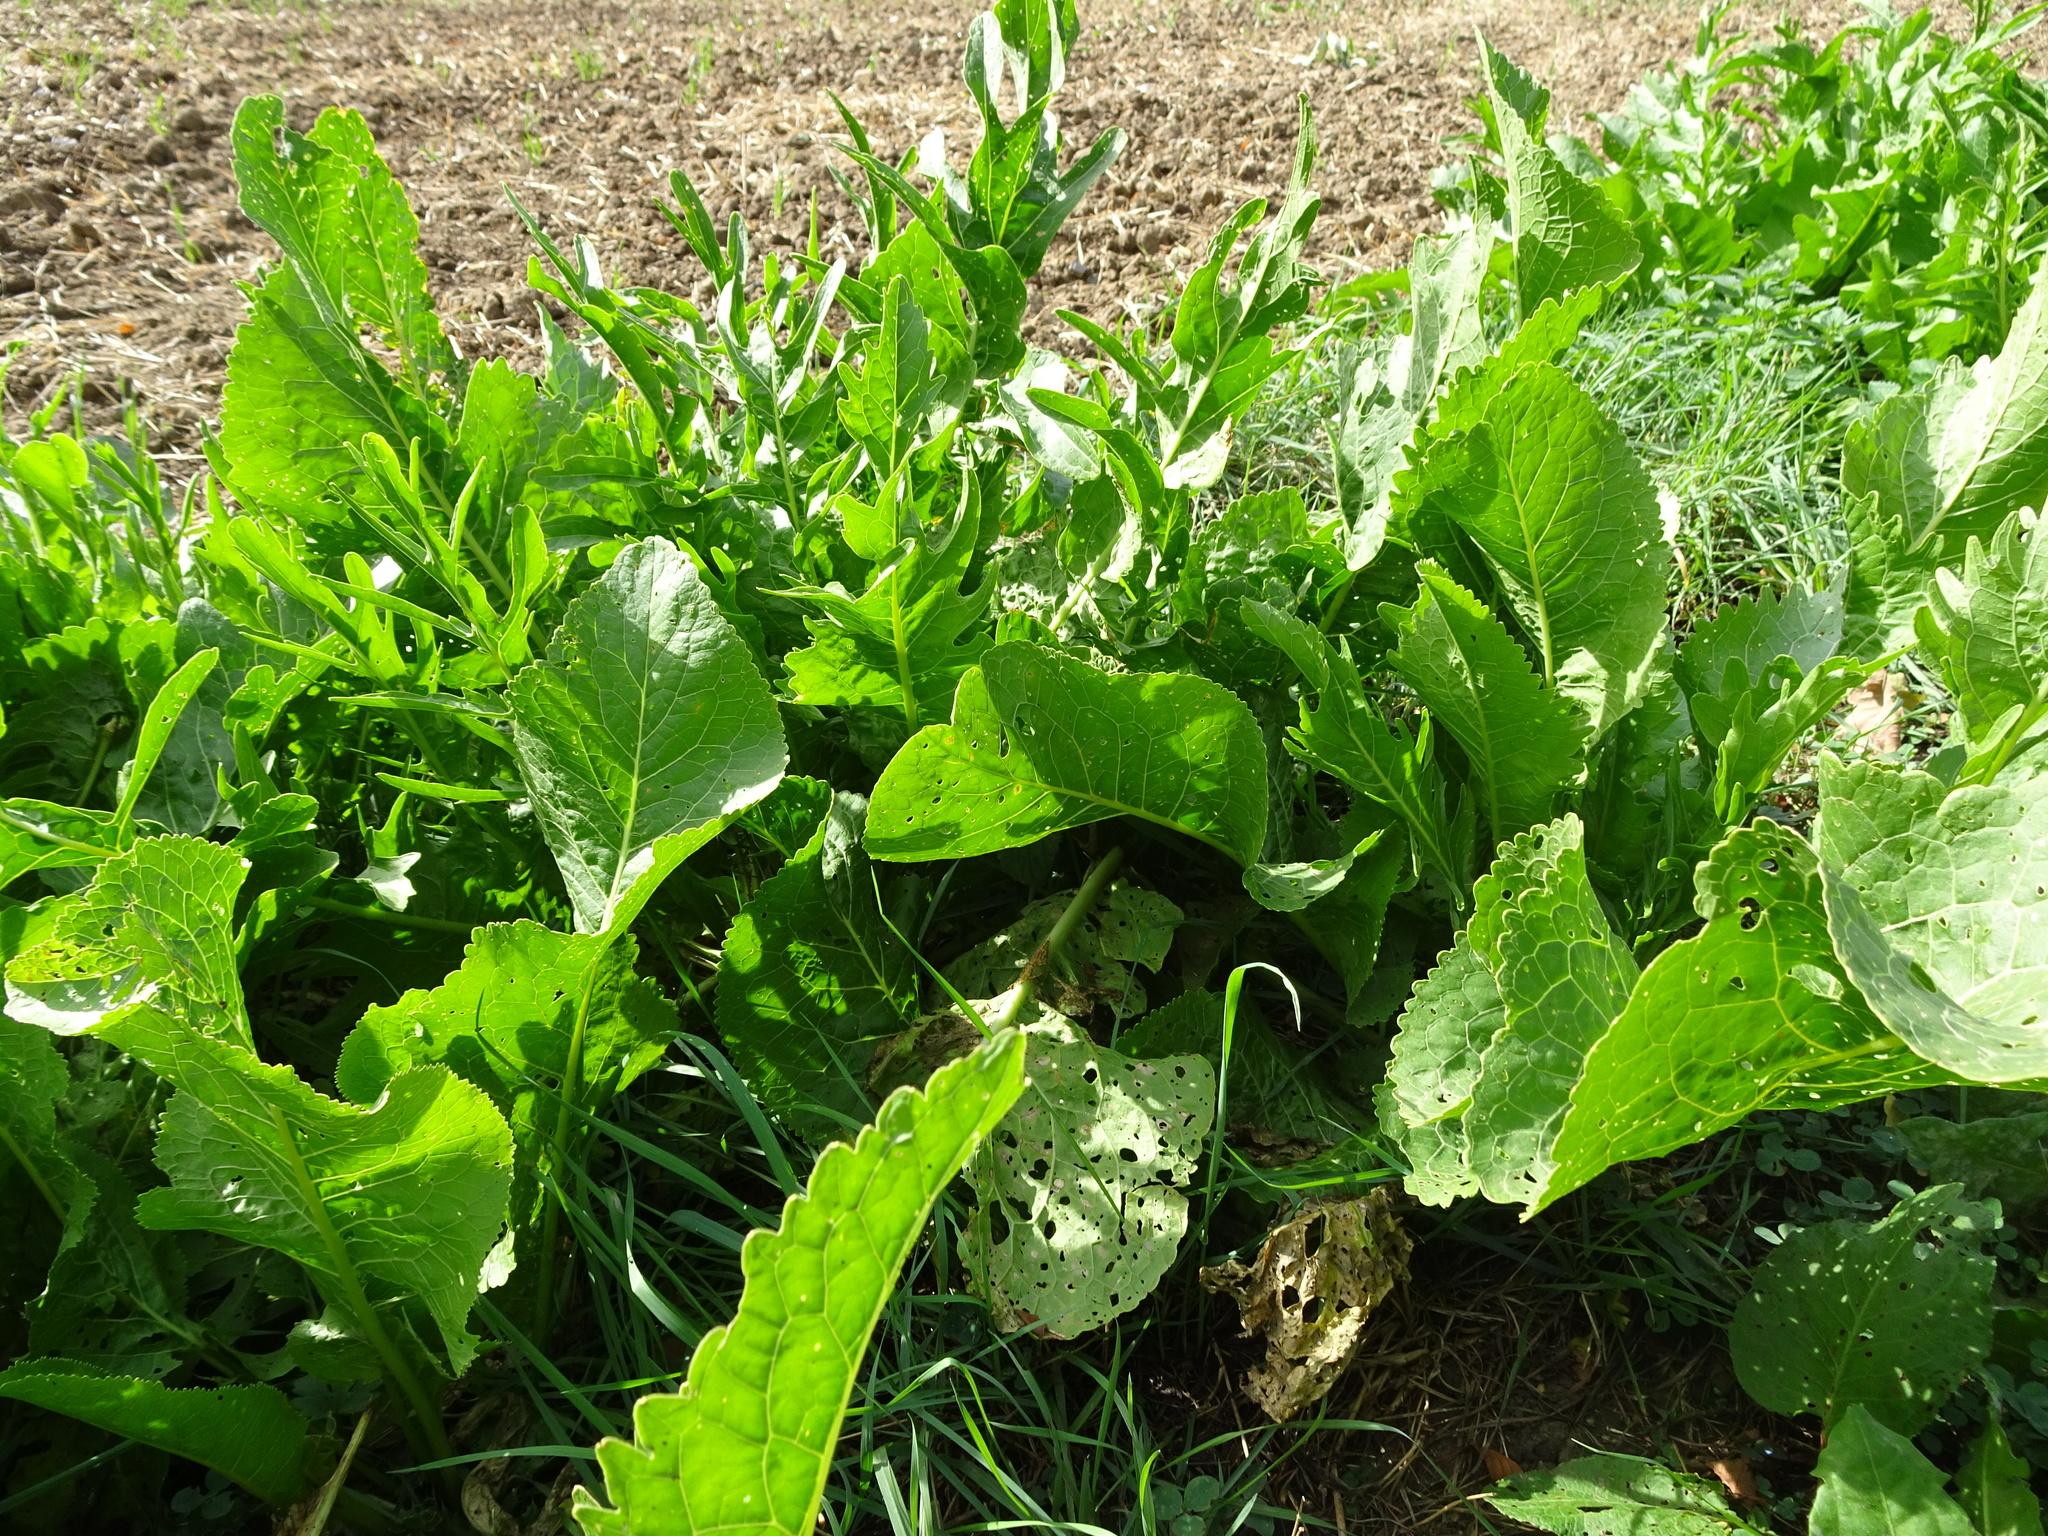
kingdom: Plantae
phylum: Tracheophyta
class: Magnoliopsida
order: Brassicales
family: Brassicaceae
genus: Armoracia
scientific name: Armoracia rusticana
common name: Horseradish
